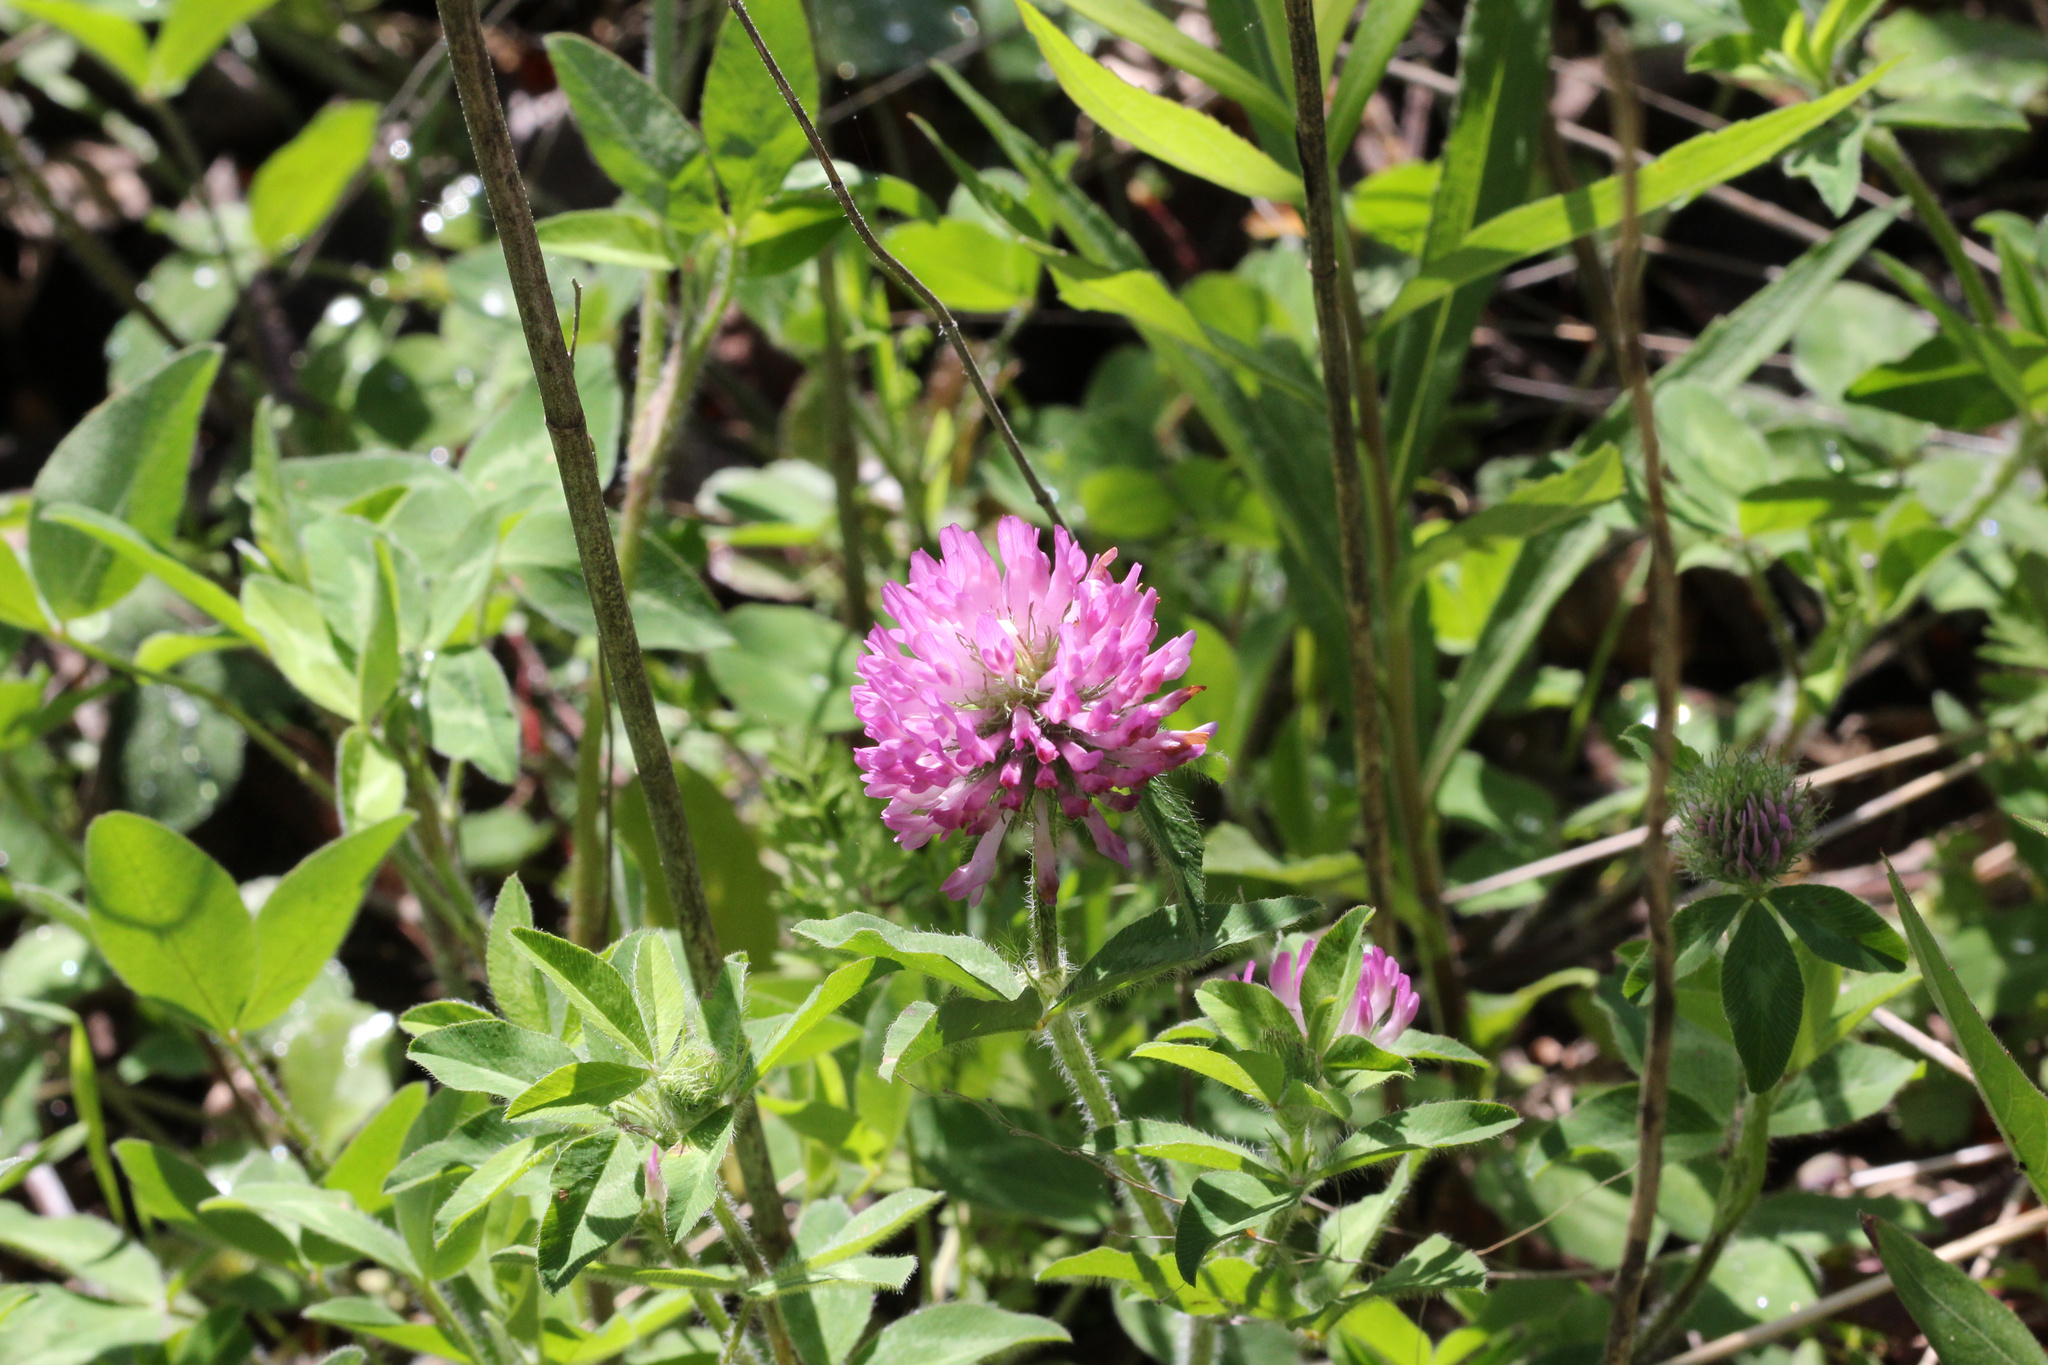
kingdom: Plantae
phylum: Tracheophyta
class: Magnoliopsida
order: Fabales
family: Fabaceae
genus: Trifolium
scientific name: Trifolium pratense
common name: Red clover
